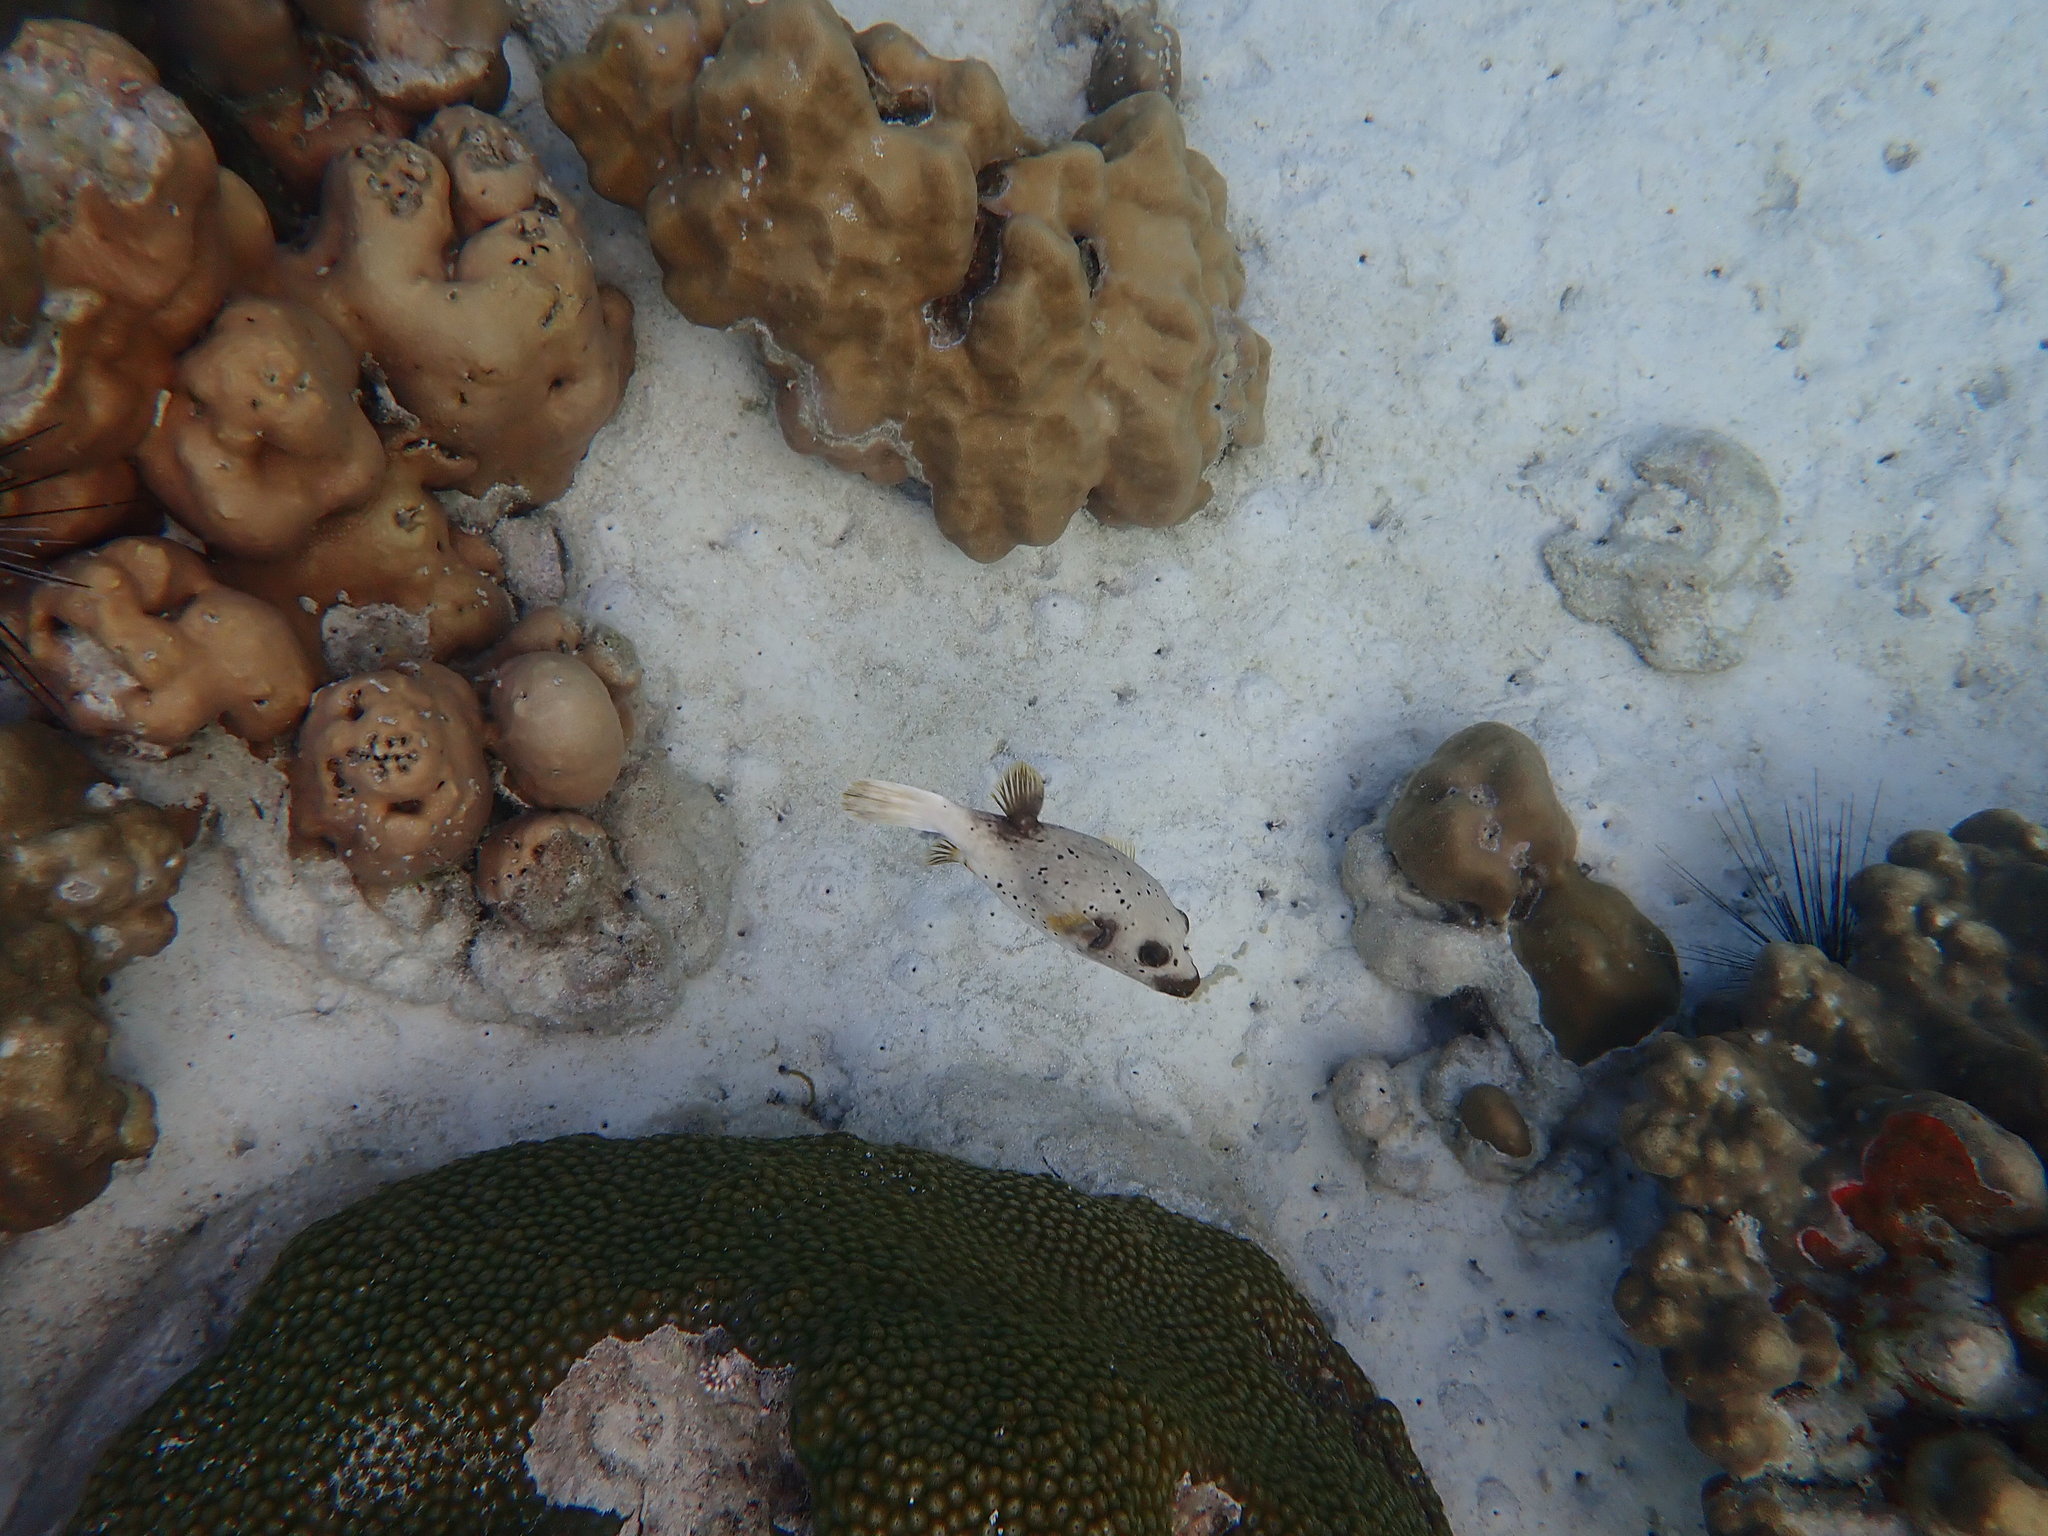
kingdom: Animalia
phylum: Chordata
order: Tetraodontiformes
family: Tetraodontidae
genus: Arothron
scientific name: Arothron nigropunctatus
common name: Black spotted blow fish
